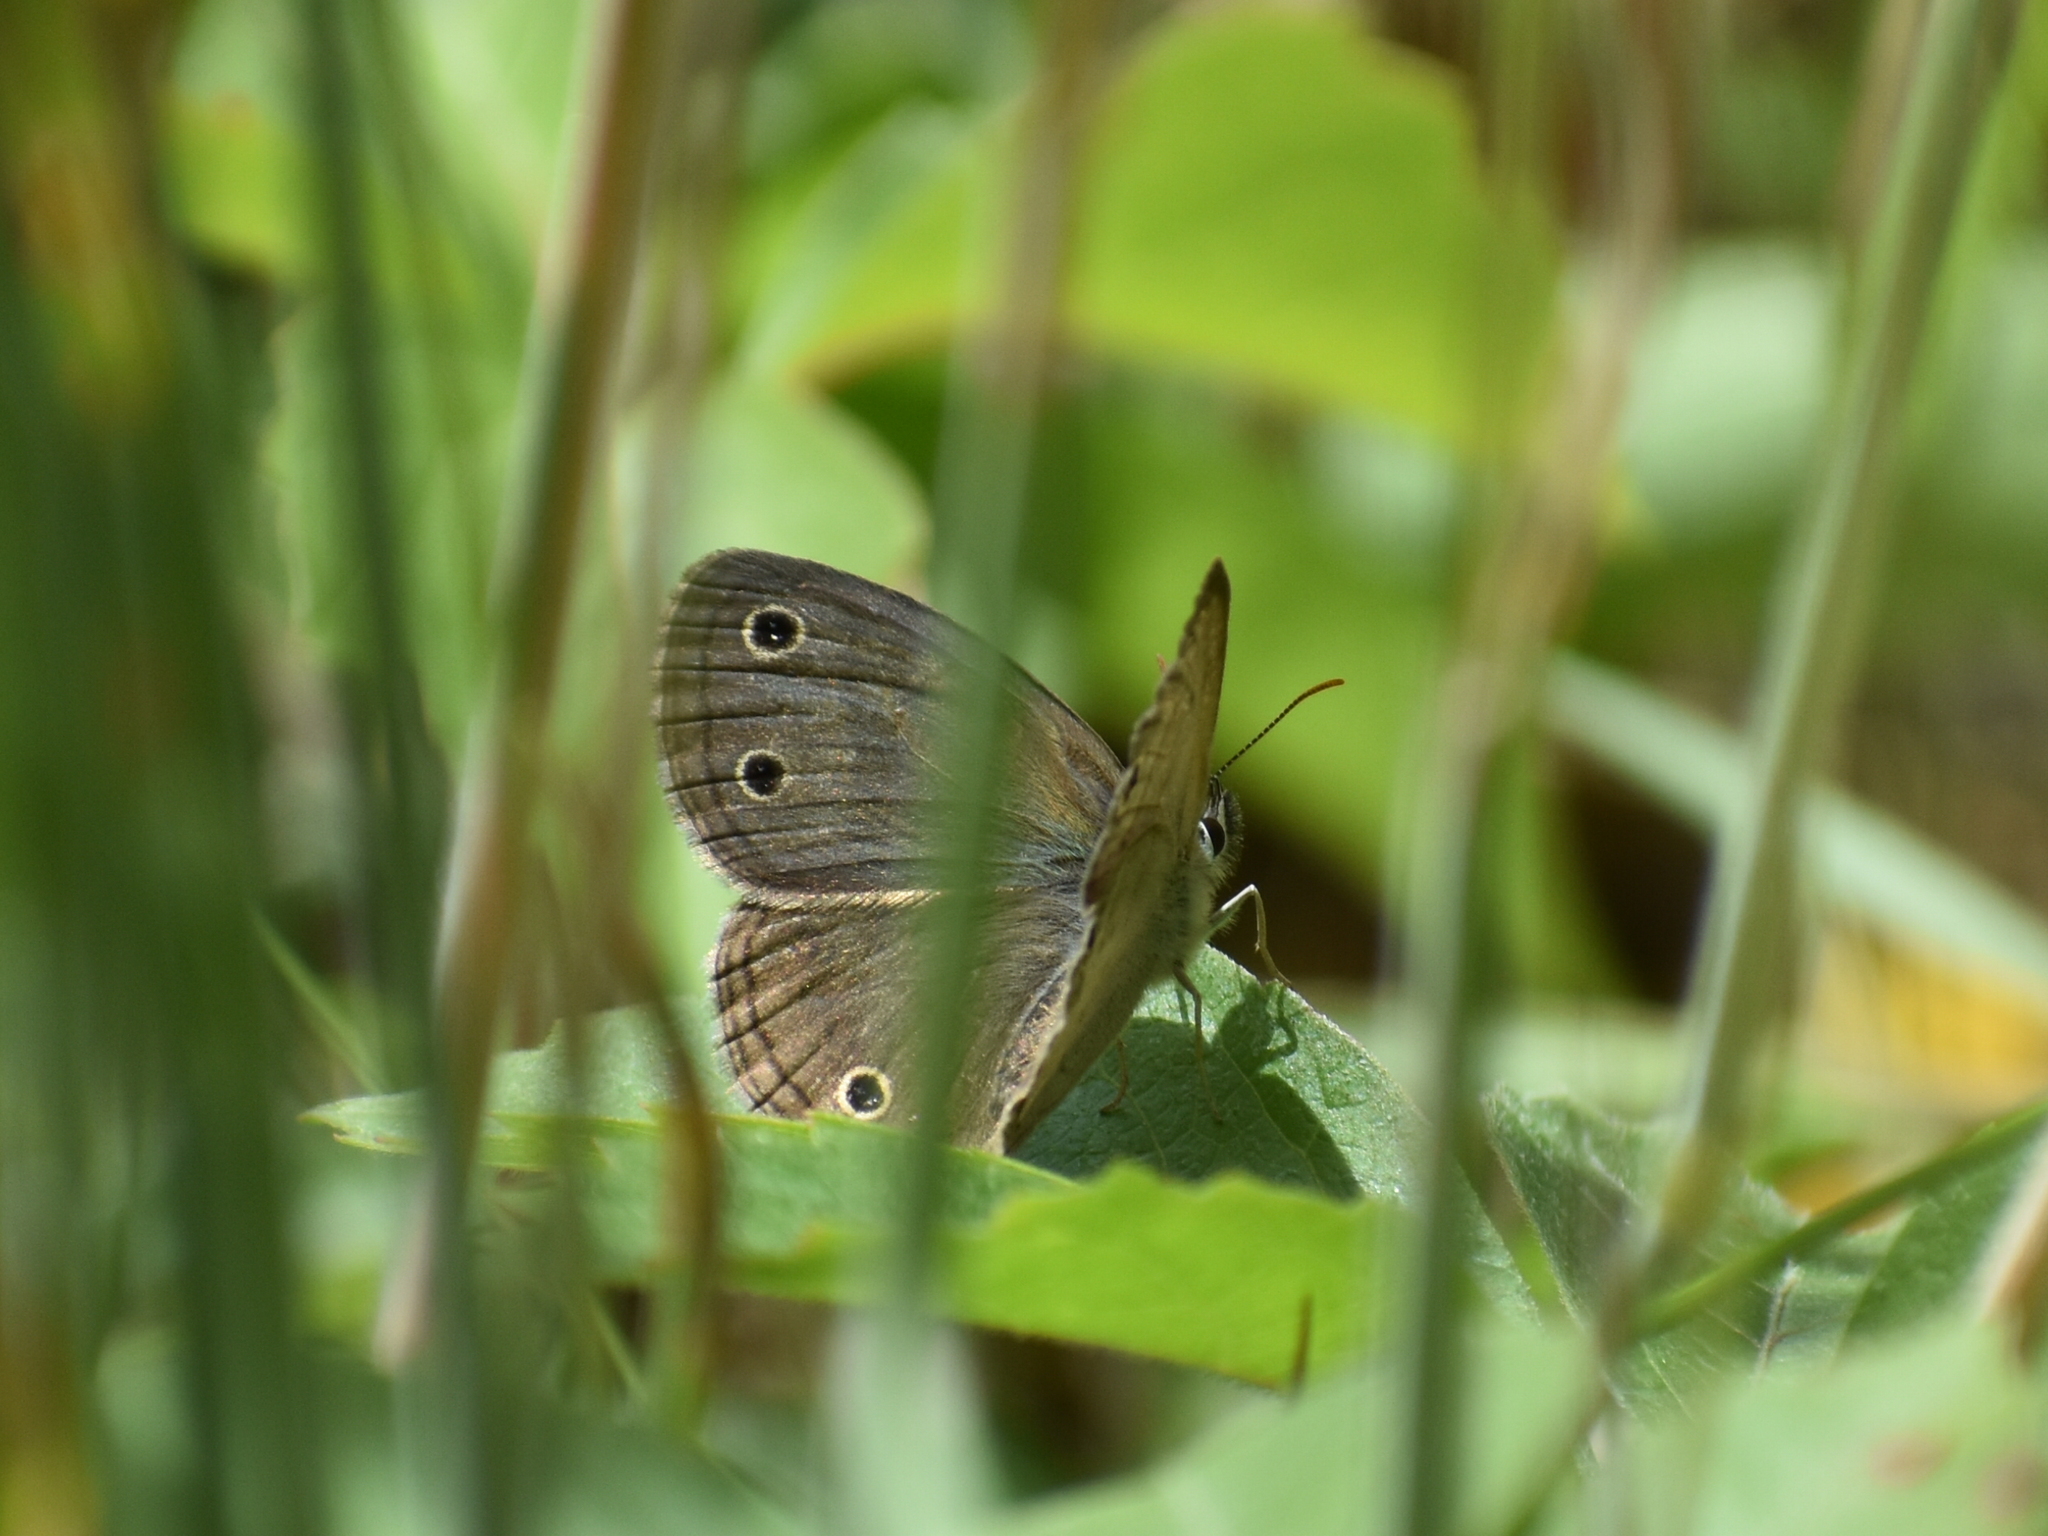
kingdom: Animalia
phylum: Arthropoda
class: Insecta
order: Lepidoptera
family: Nymphalidae
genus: Euptychia
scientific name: Euptychia cymela
